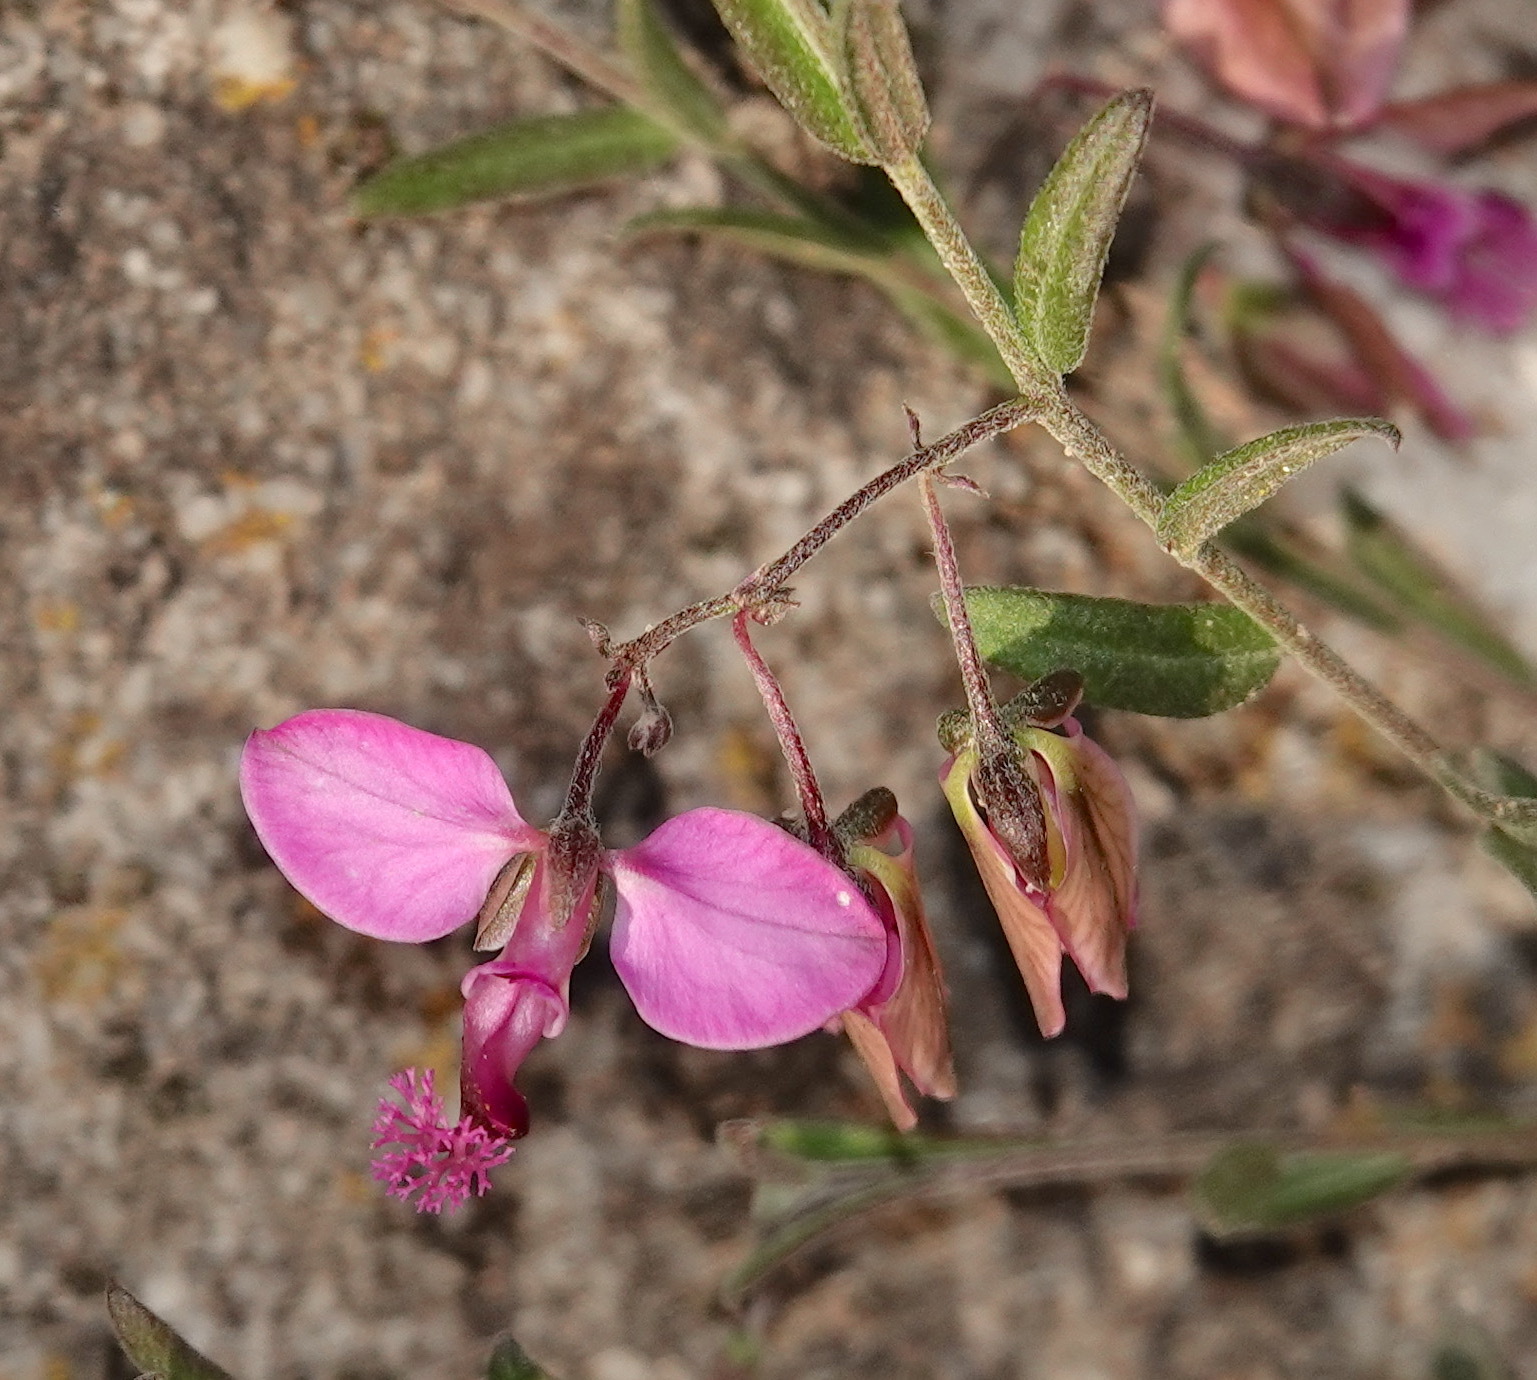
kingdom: Plantae
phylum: Tracheophyta
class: Magnoliopsida
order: Fabales
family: Polygalaceae
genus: Polygala
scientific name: Polygala scabra
